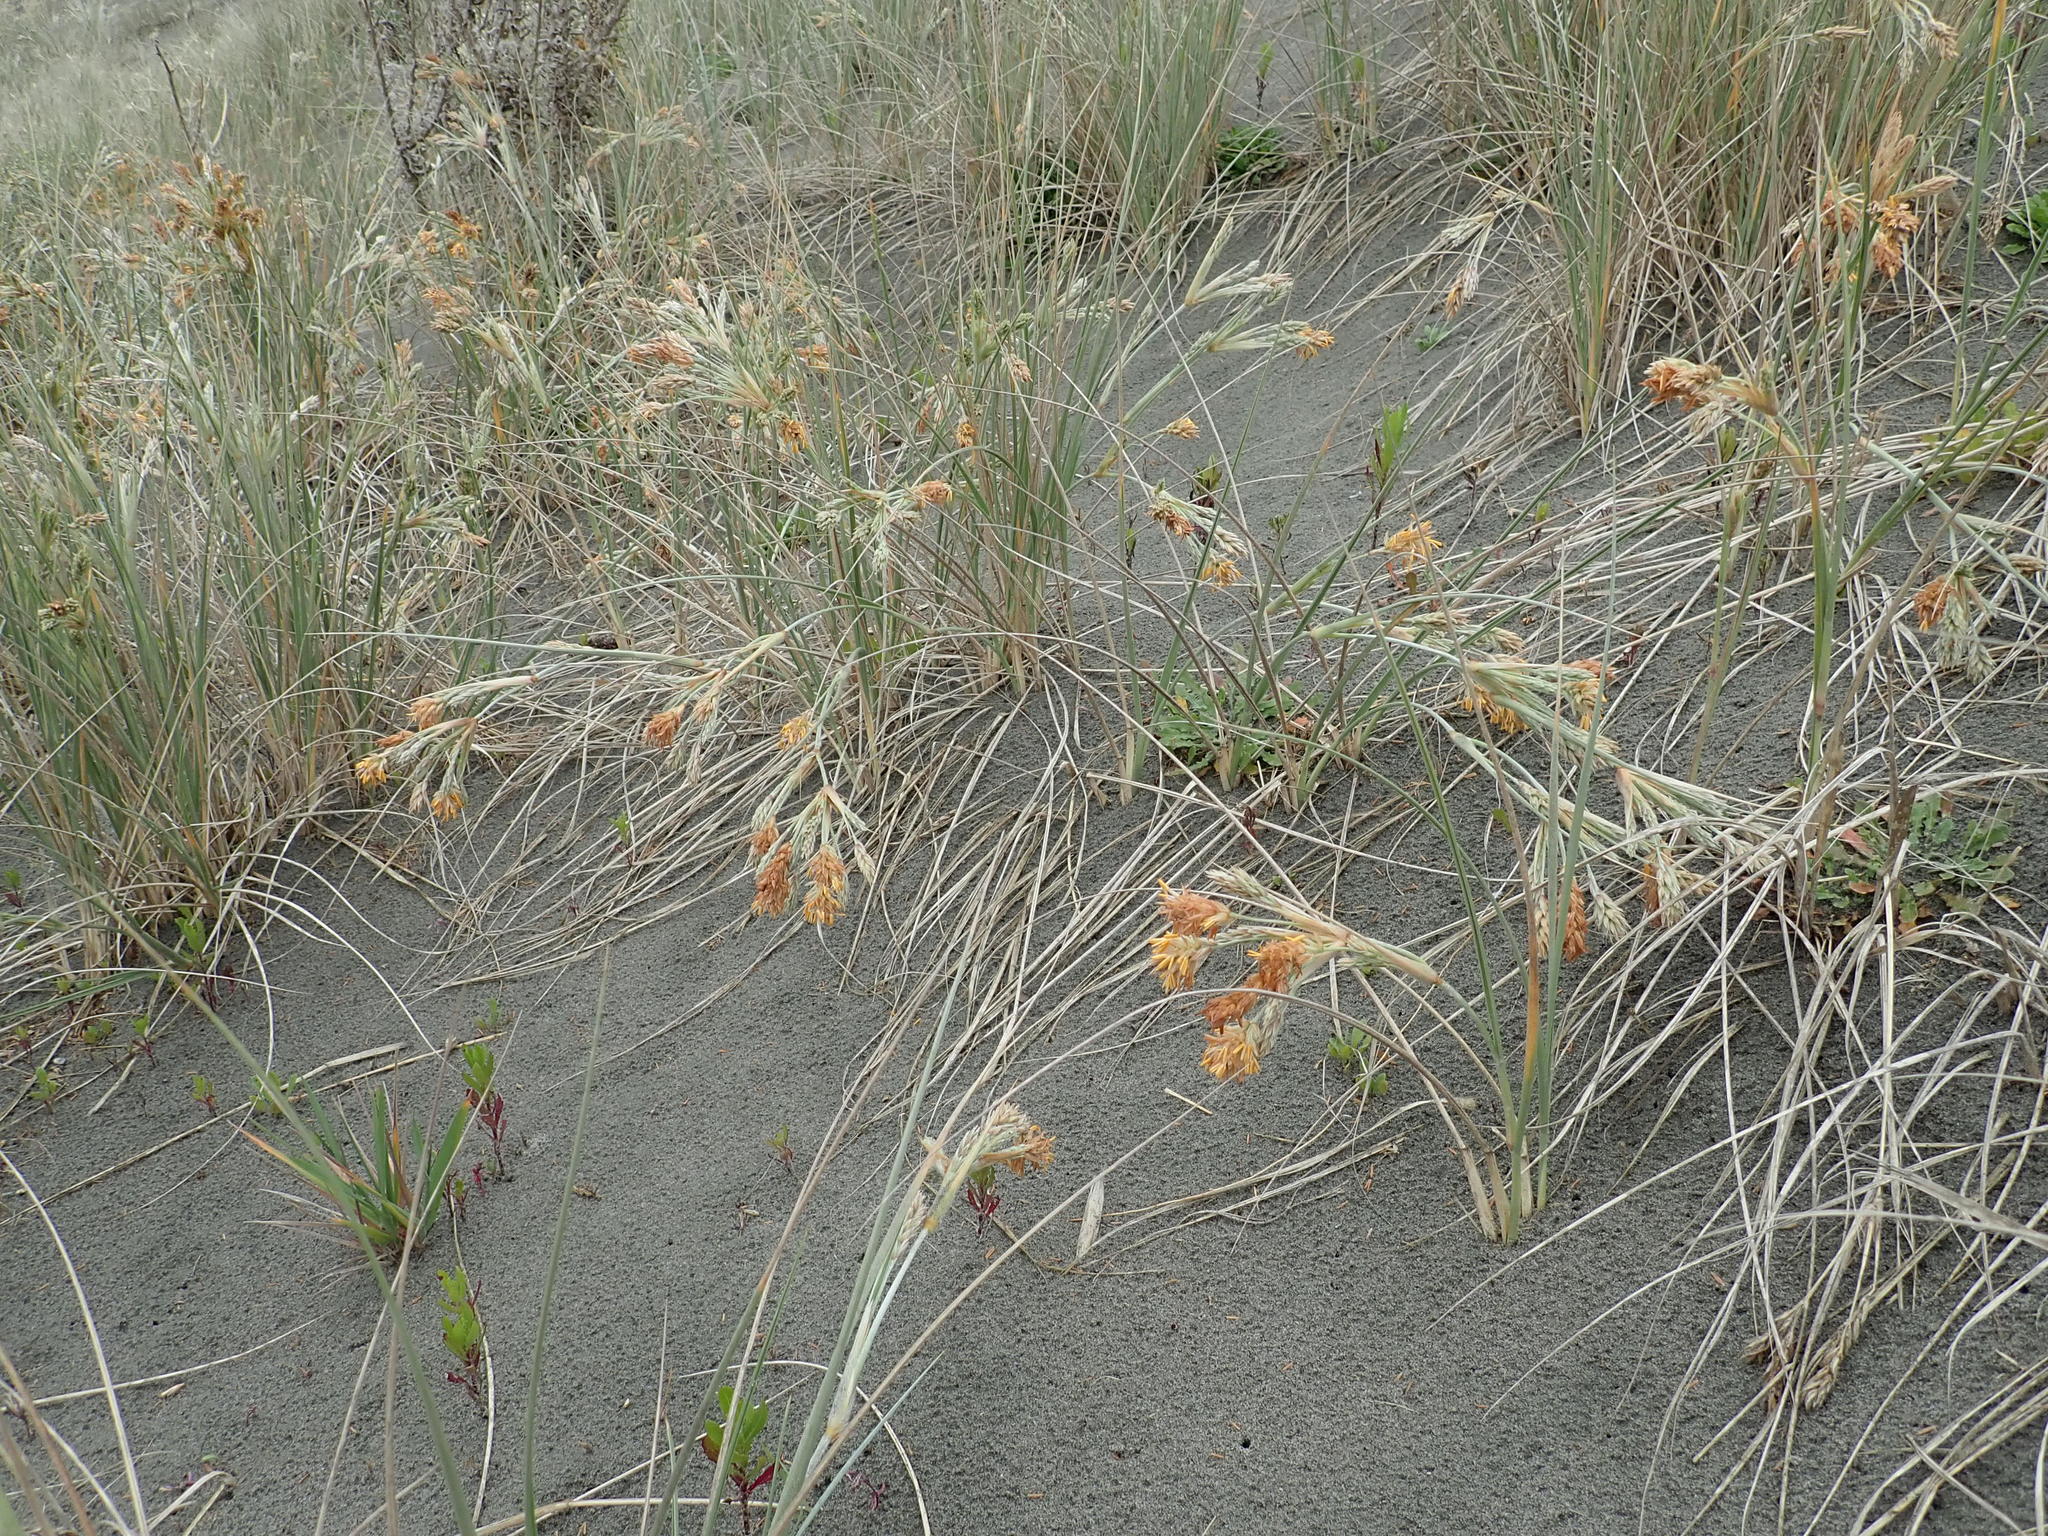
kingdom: Plantae
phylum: Tracheophyta
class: Liliopsida
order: Poales
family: Poaceae
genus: Spinifex
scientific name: Spinifex sericeus
